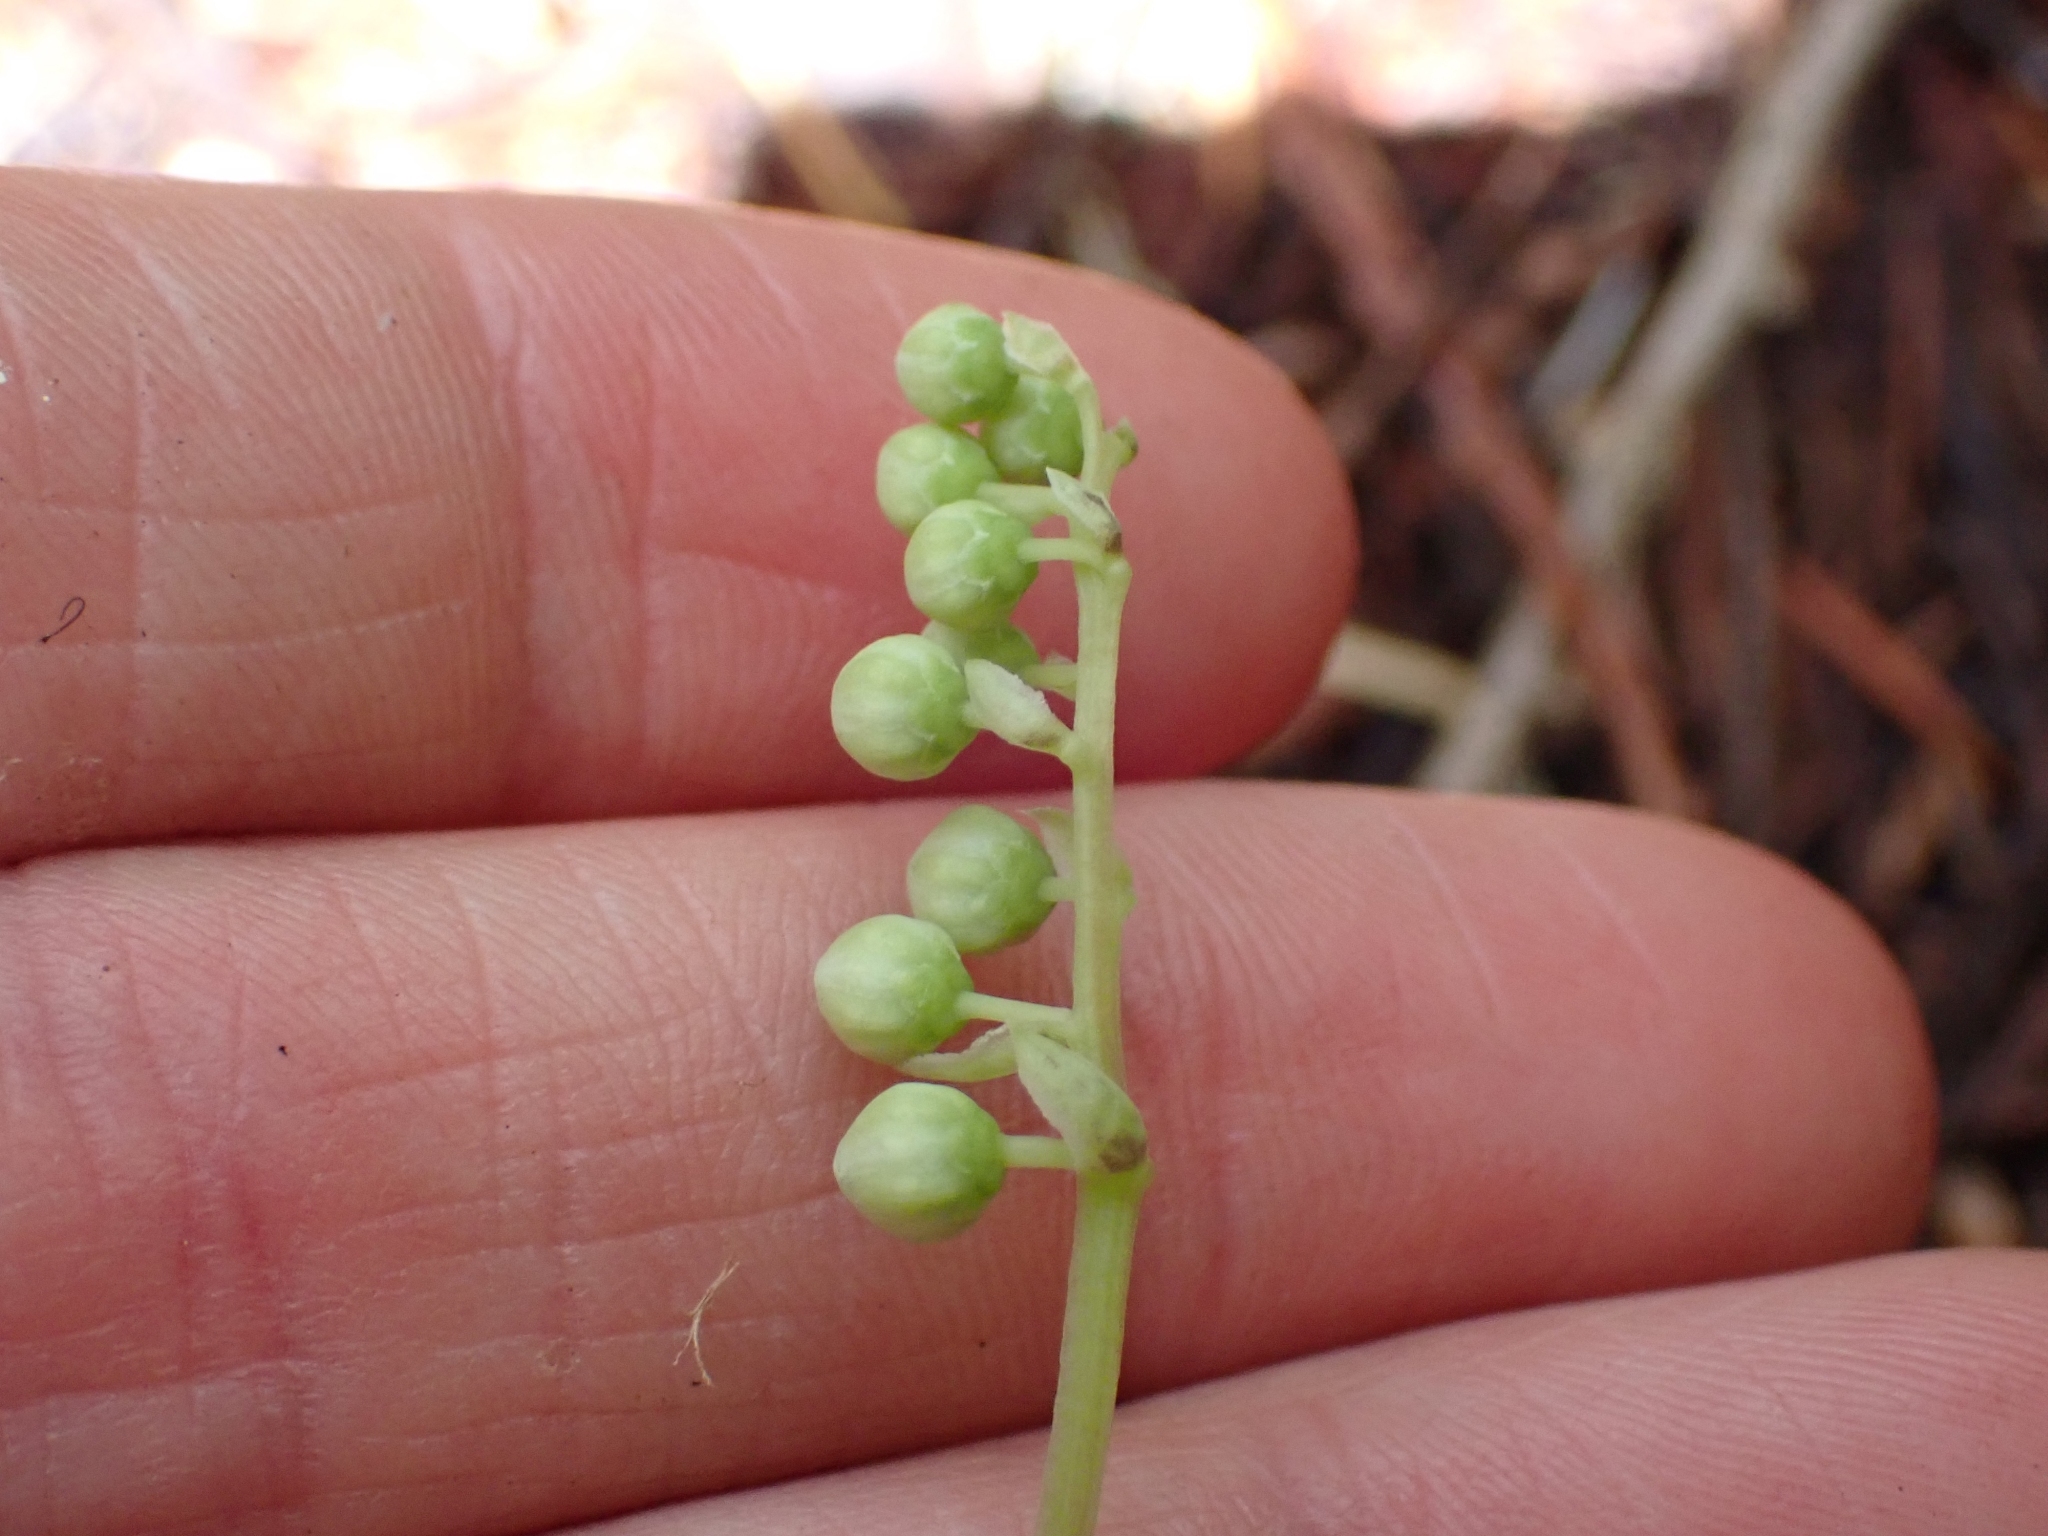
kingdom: Plantae
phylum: Tracheophyta
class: Magnoliopsida
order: Ericales
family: Ericaceae
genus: Orthilia
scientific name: Orthilia secunda
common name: One-sided orthilia
